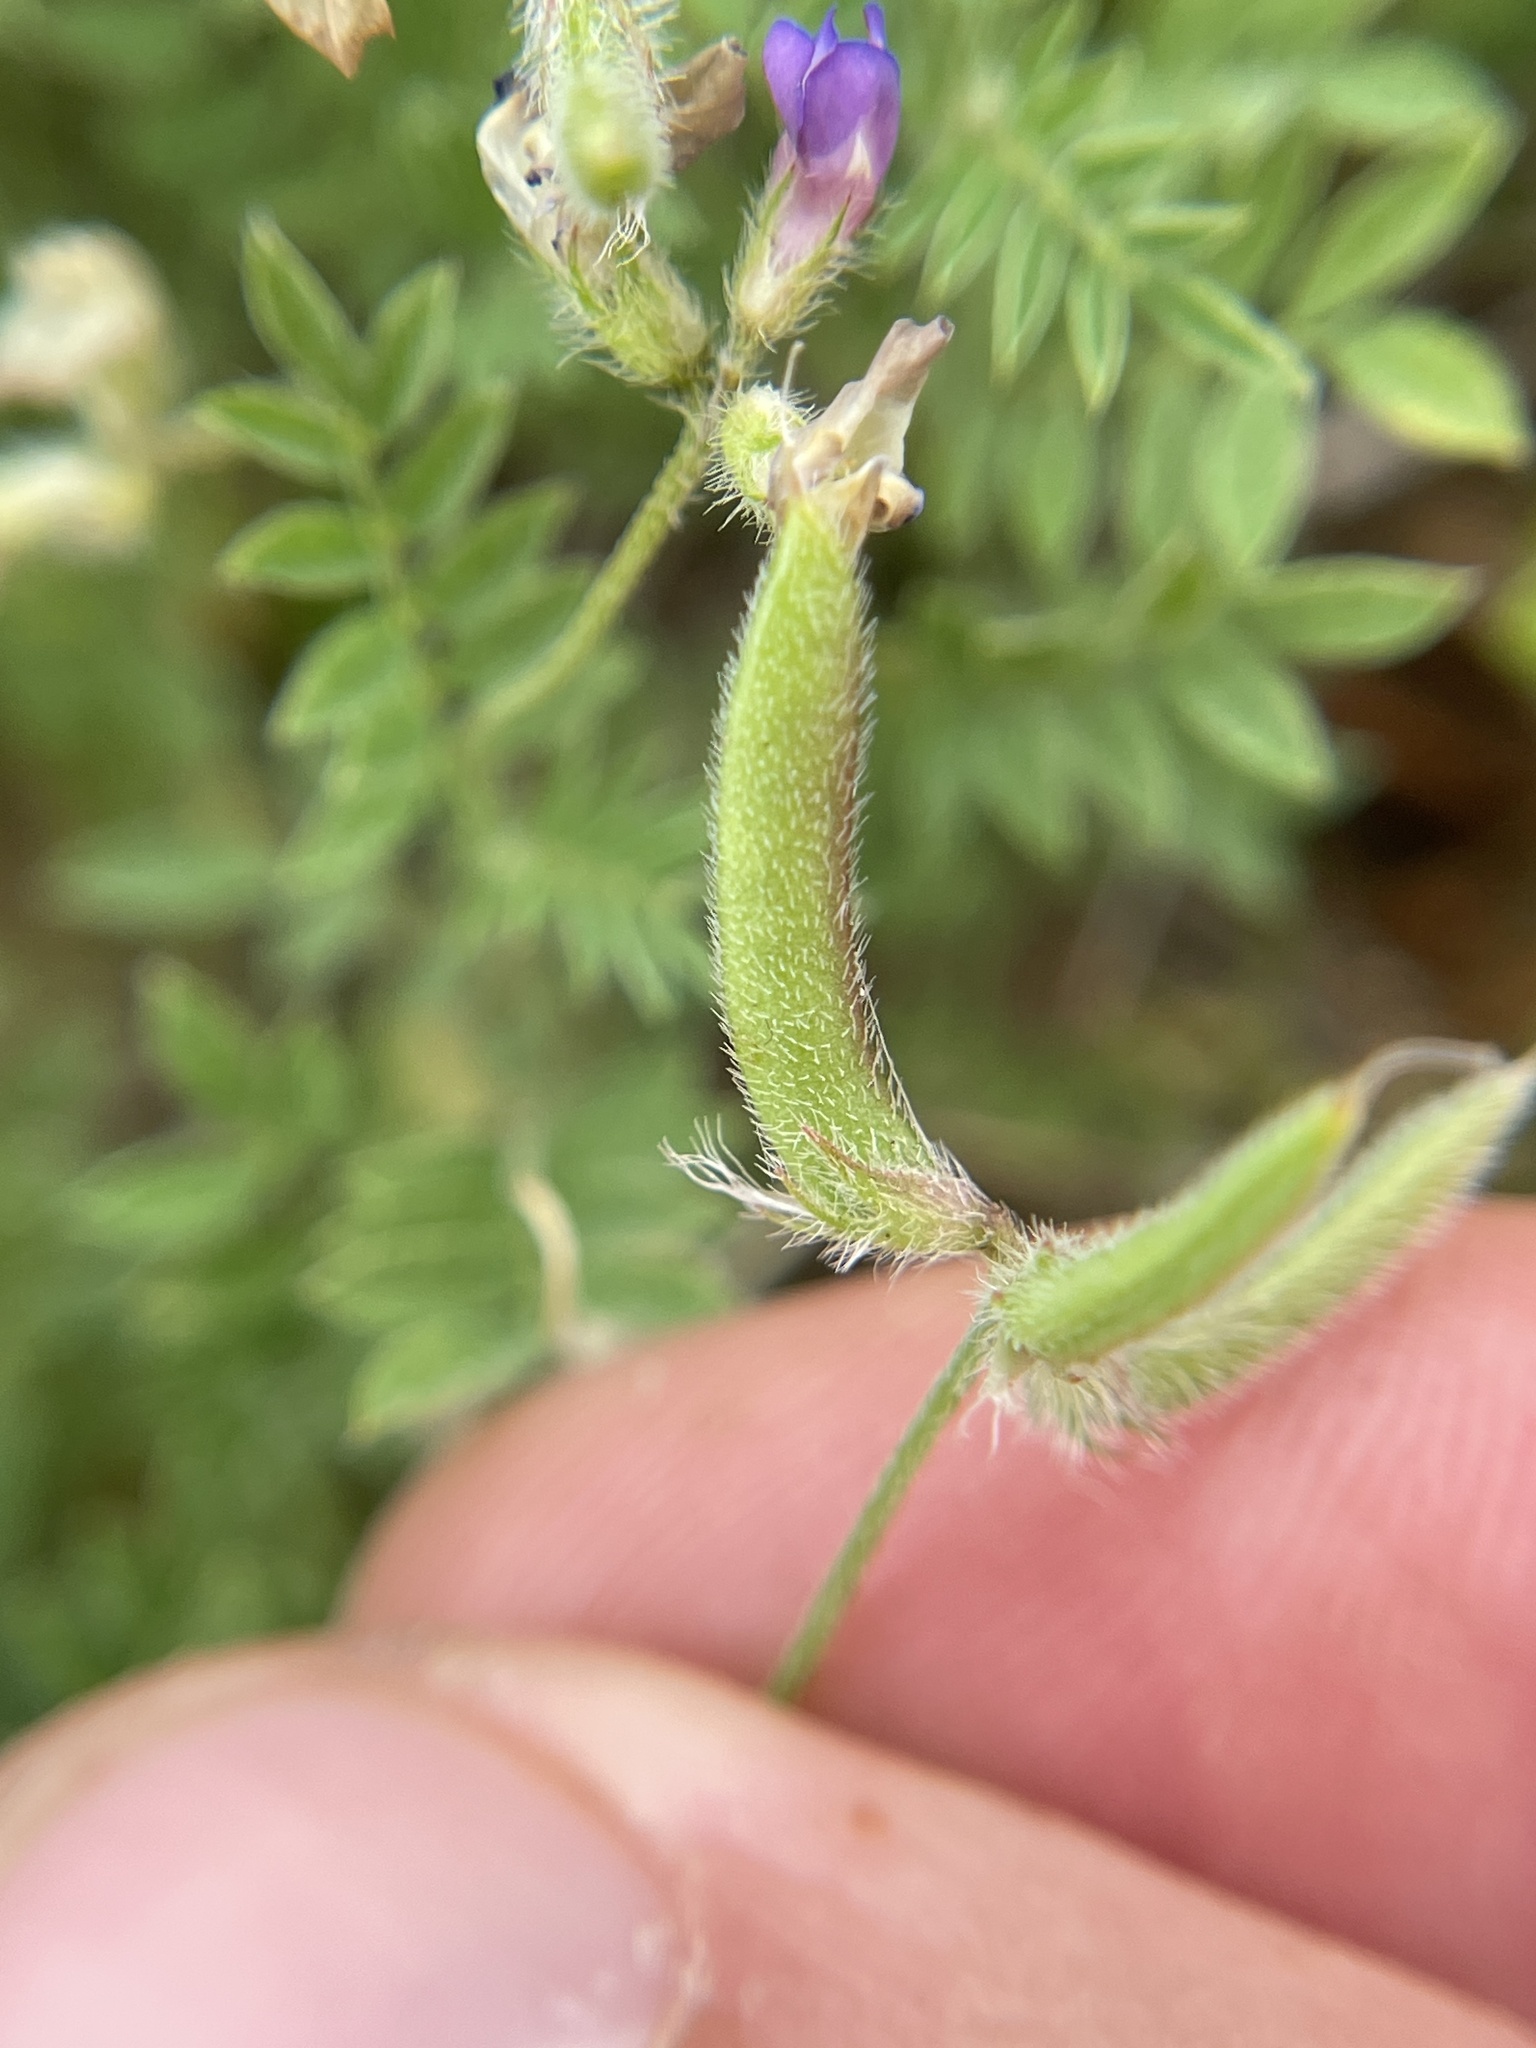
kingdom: Plantae
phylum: Tracheophyta
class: Magnoliopsida
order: Fabales
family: Fabaceae
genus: Astragalus
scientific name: Astragalus nuttallianus
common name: Smallflowered milkvetch
